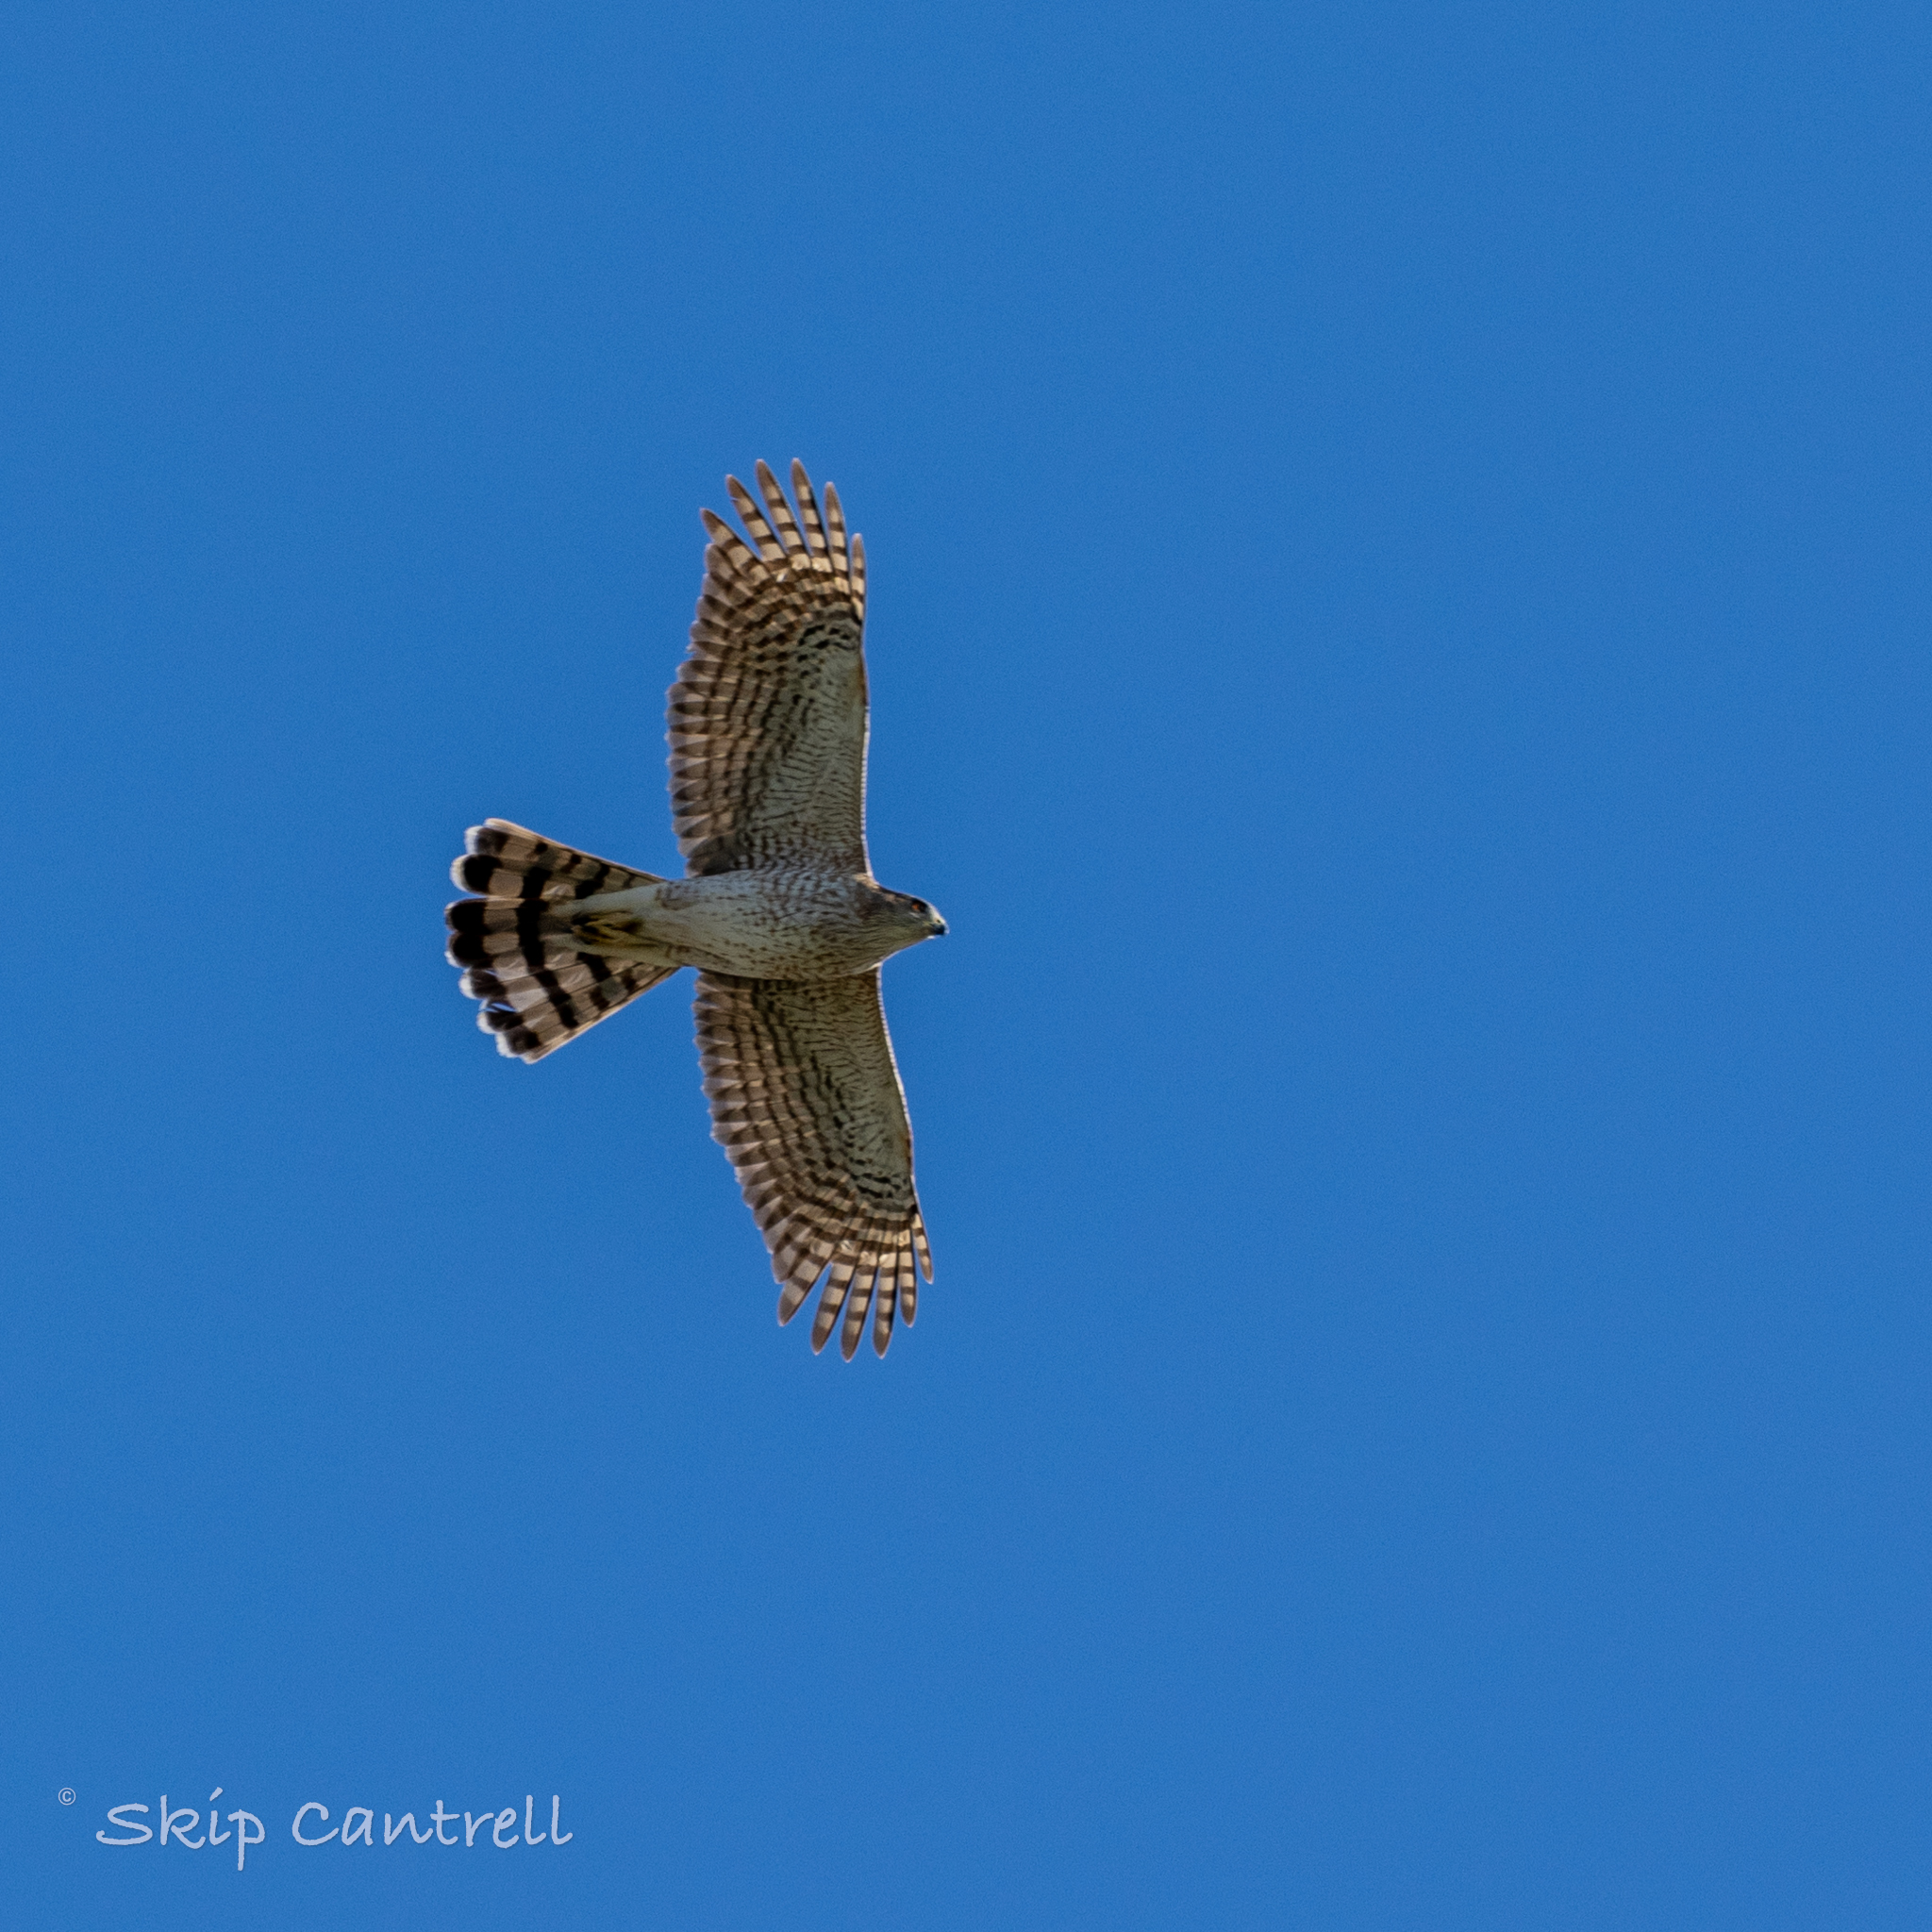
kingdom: Animalia
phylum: Chordata
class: Aves
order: Accipitriformes
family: Accipitridae
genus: Accipiter
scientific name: Accipiter cooperii
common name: Cooper's hawk
